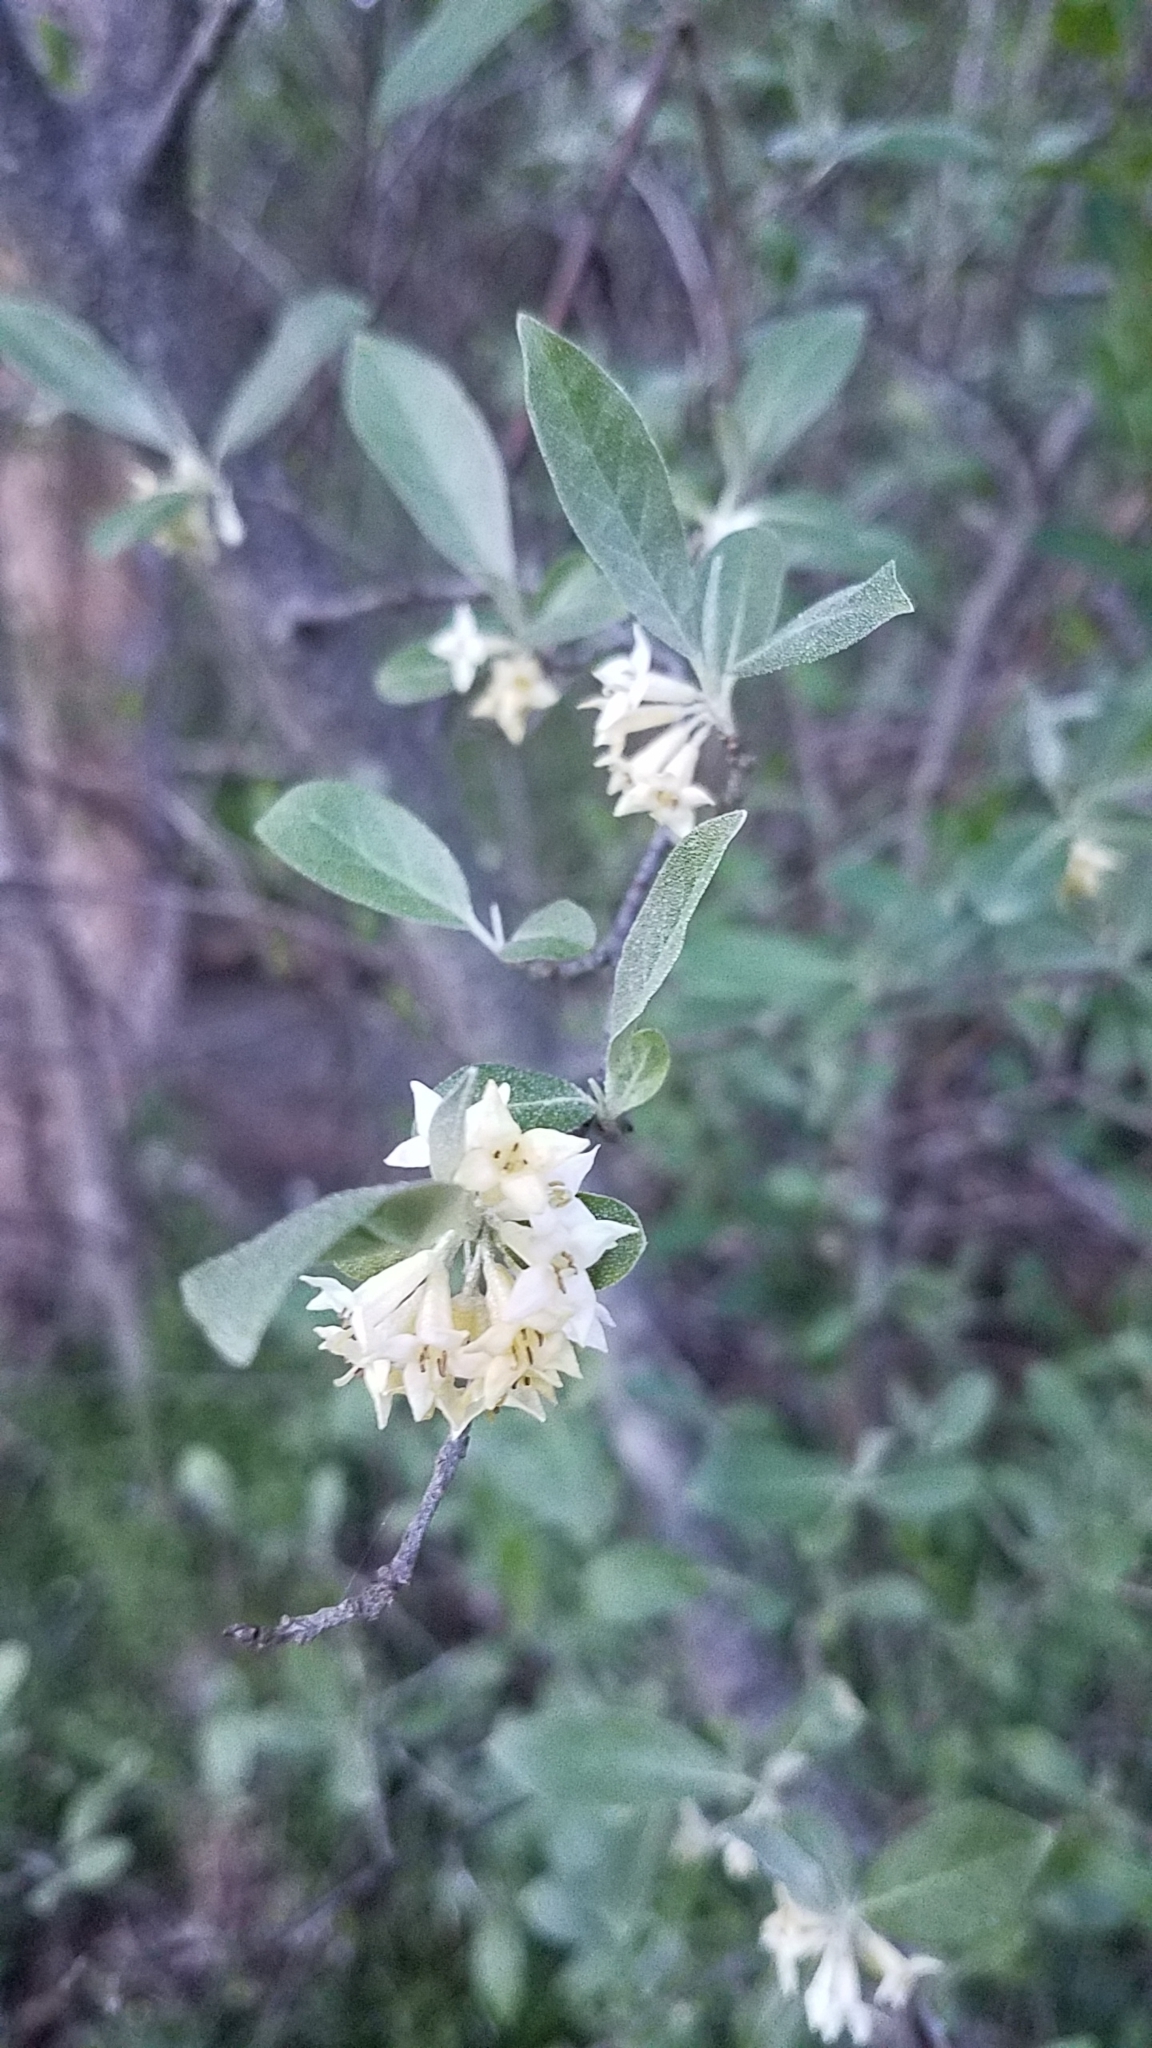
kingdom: Plantae
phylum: Tracheophyta
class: Magnoliopsida
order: Rosales
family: Elaeagnaceae
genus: Elaeagnus
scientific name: Elaeagnus umbellata
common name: Autumn olive
